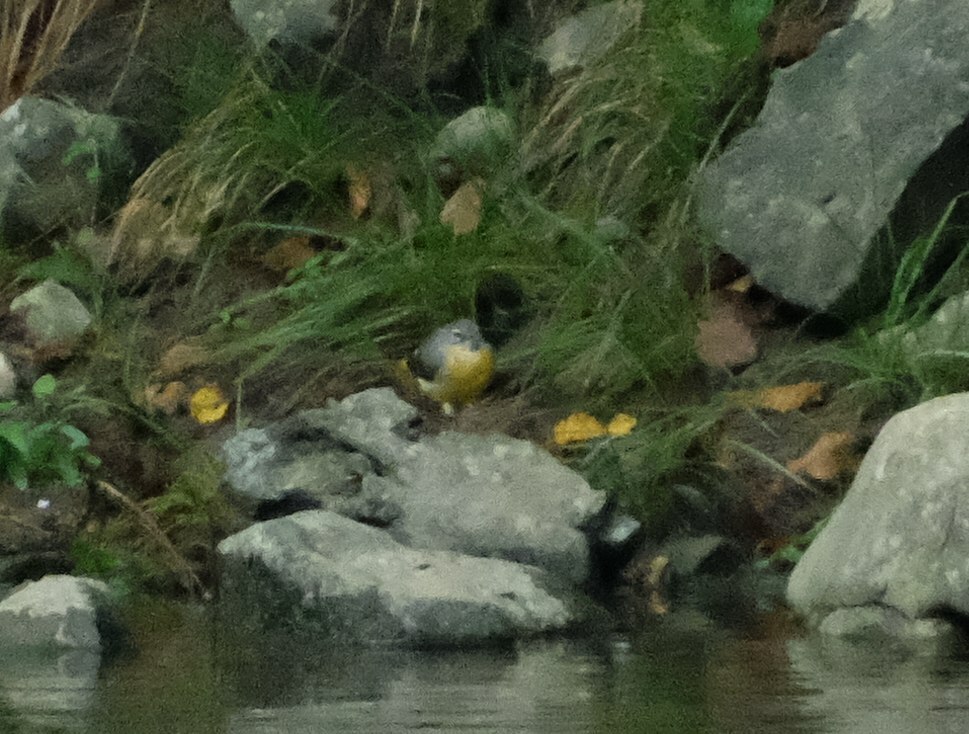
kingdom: Animalia
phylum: Chordata
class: Aves
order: Passeriformes
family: Motacillidae
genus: Motacilla
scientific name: Motacilla cinerea
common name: Grey wagtail
